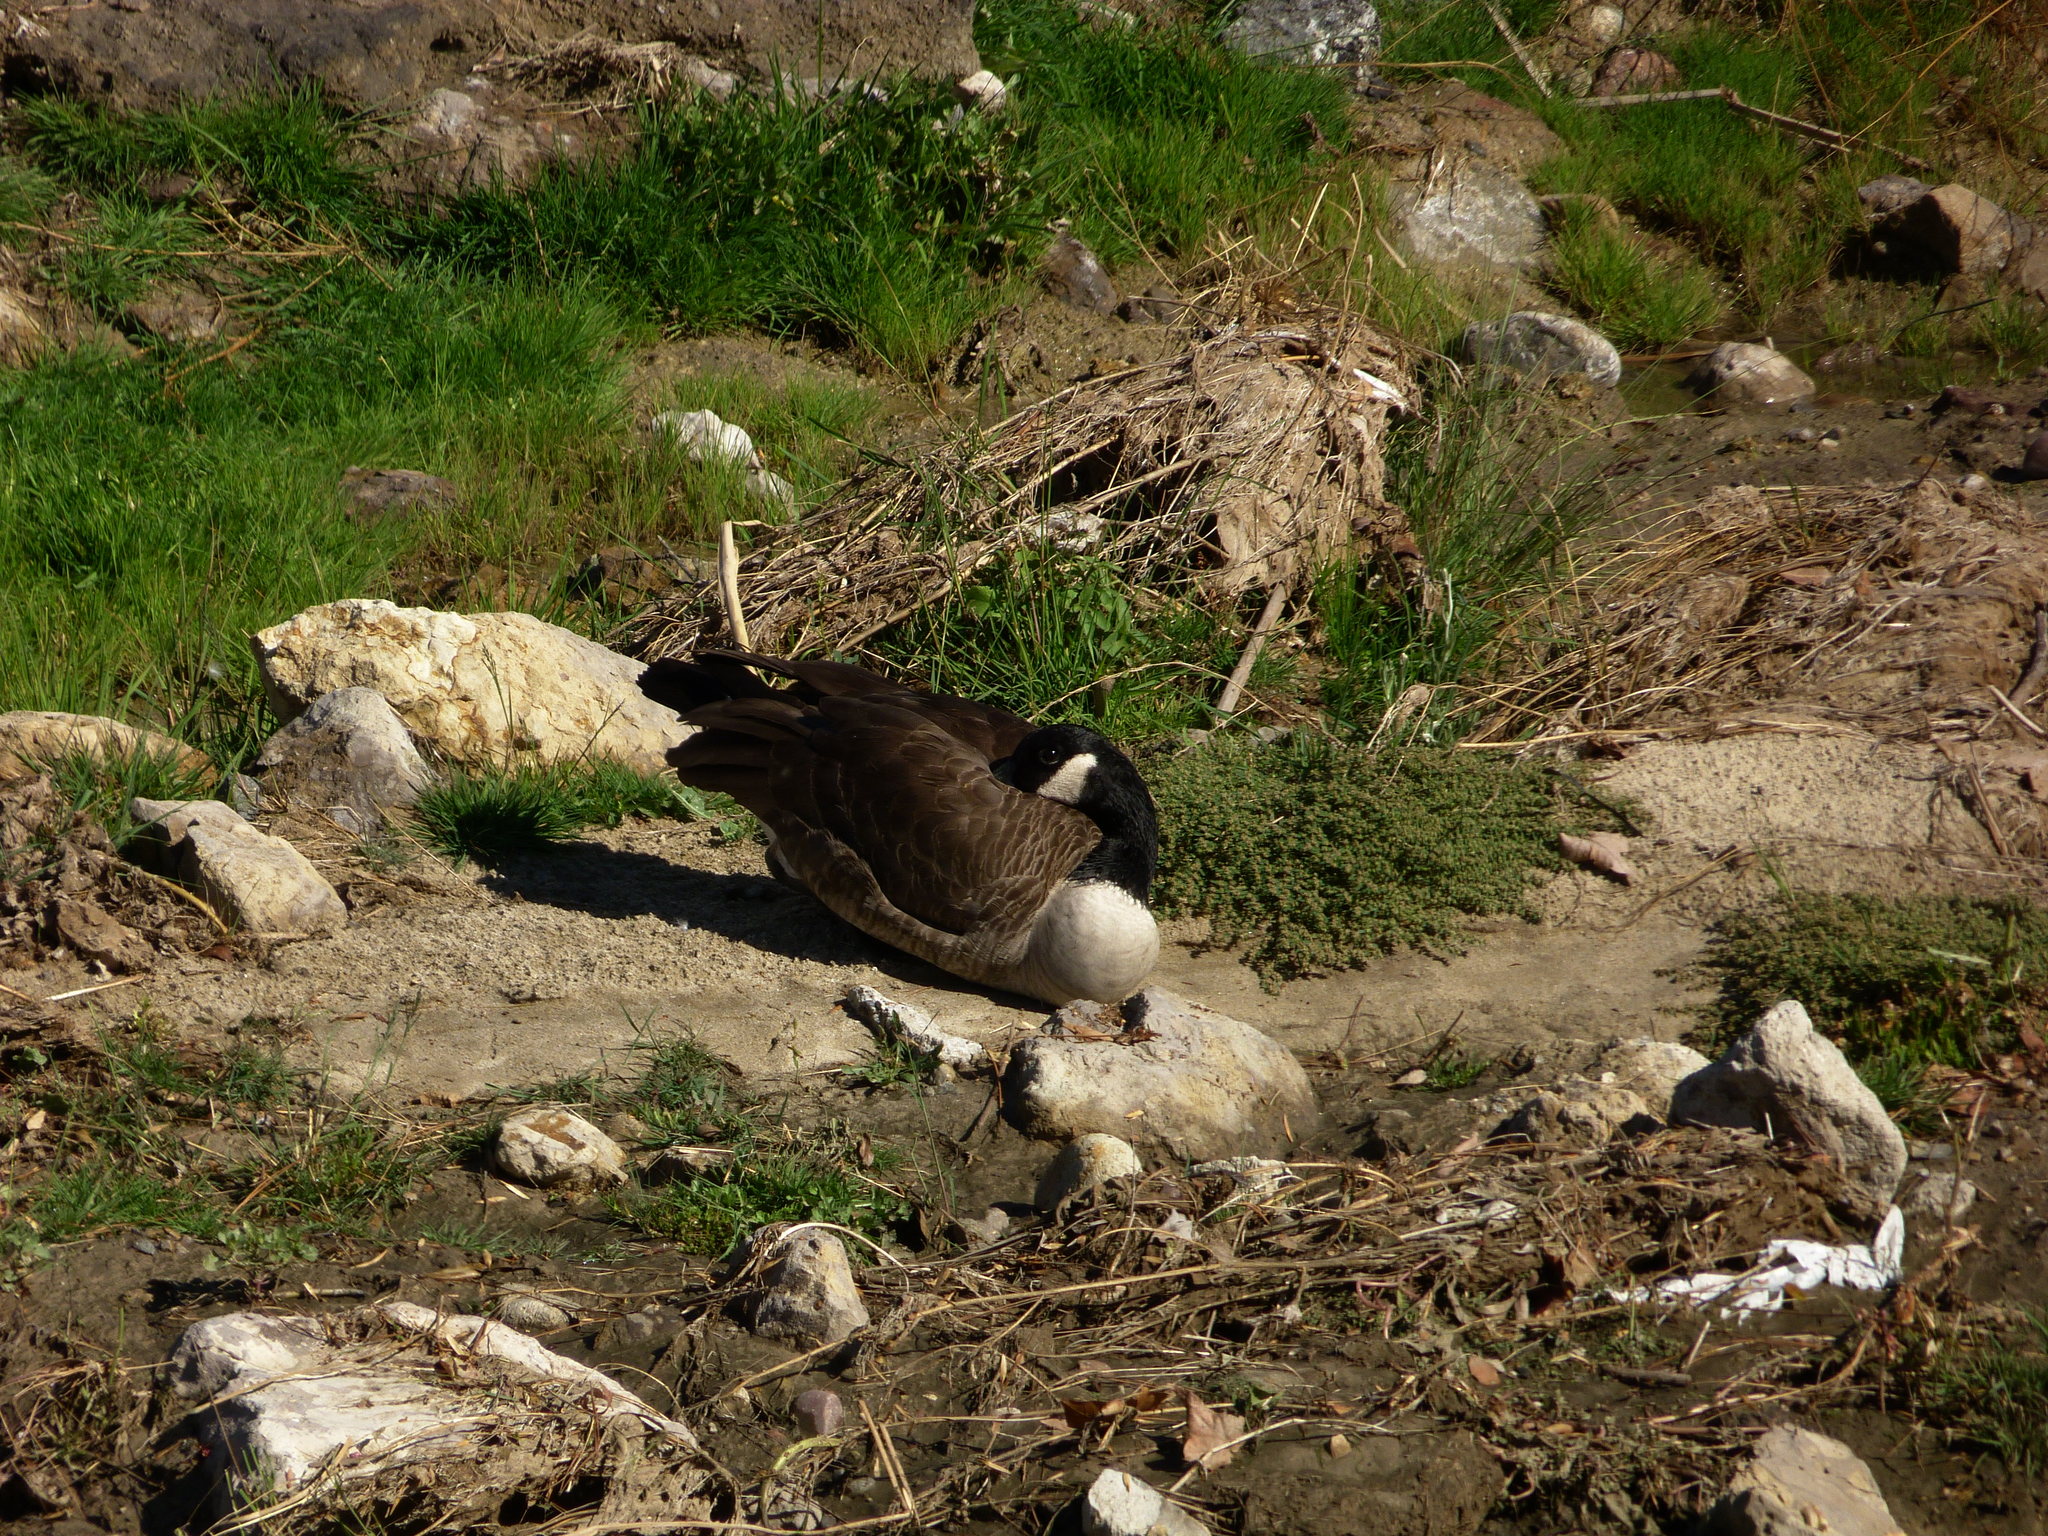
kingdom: Animalia
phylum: Chordata
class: Aves
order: Anseriformes
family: Anatidae
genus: Branta
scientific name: Branta canadensis
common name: Canada goose
